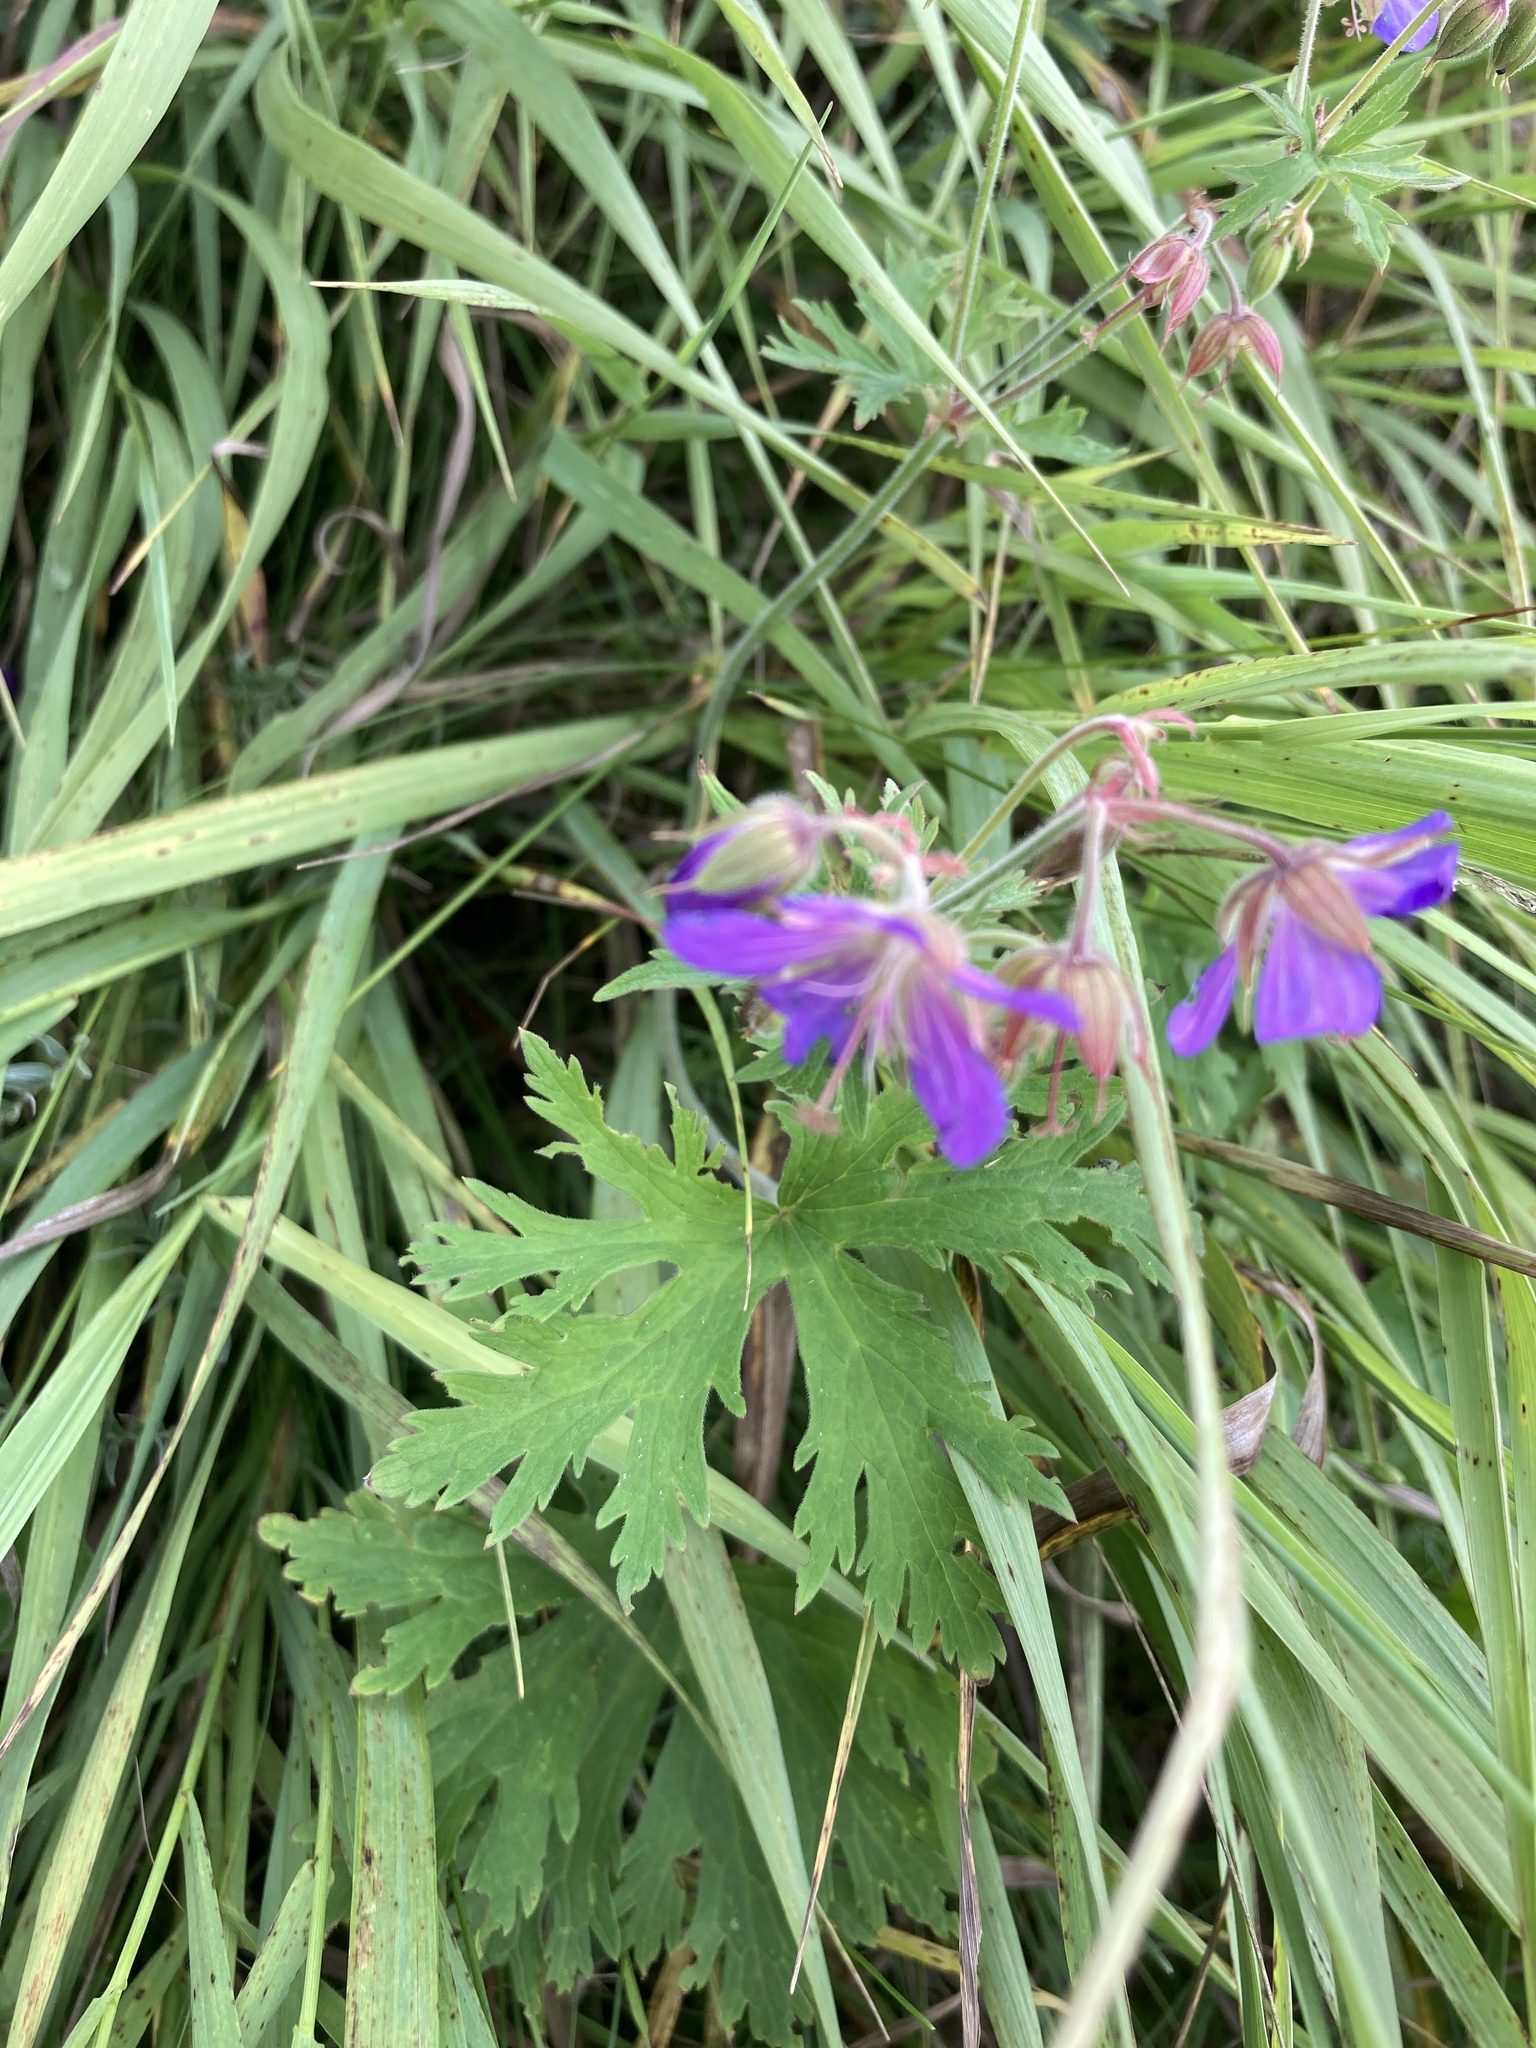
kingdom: Plantae
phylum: Tracheophyta
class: Magnoliopsida
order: Geraniales
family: Geraniaceae
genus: Geranium
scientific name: Geranium pratense
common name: Meadow crane's-bill
